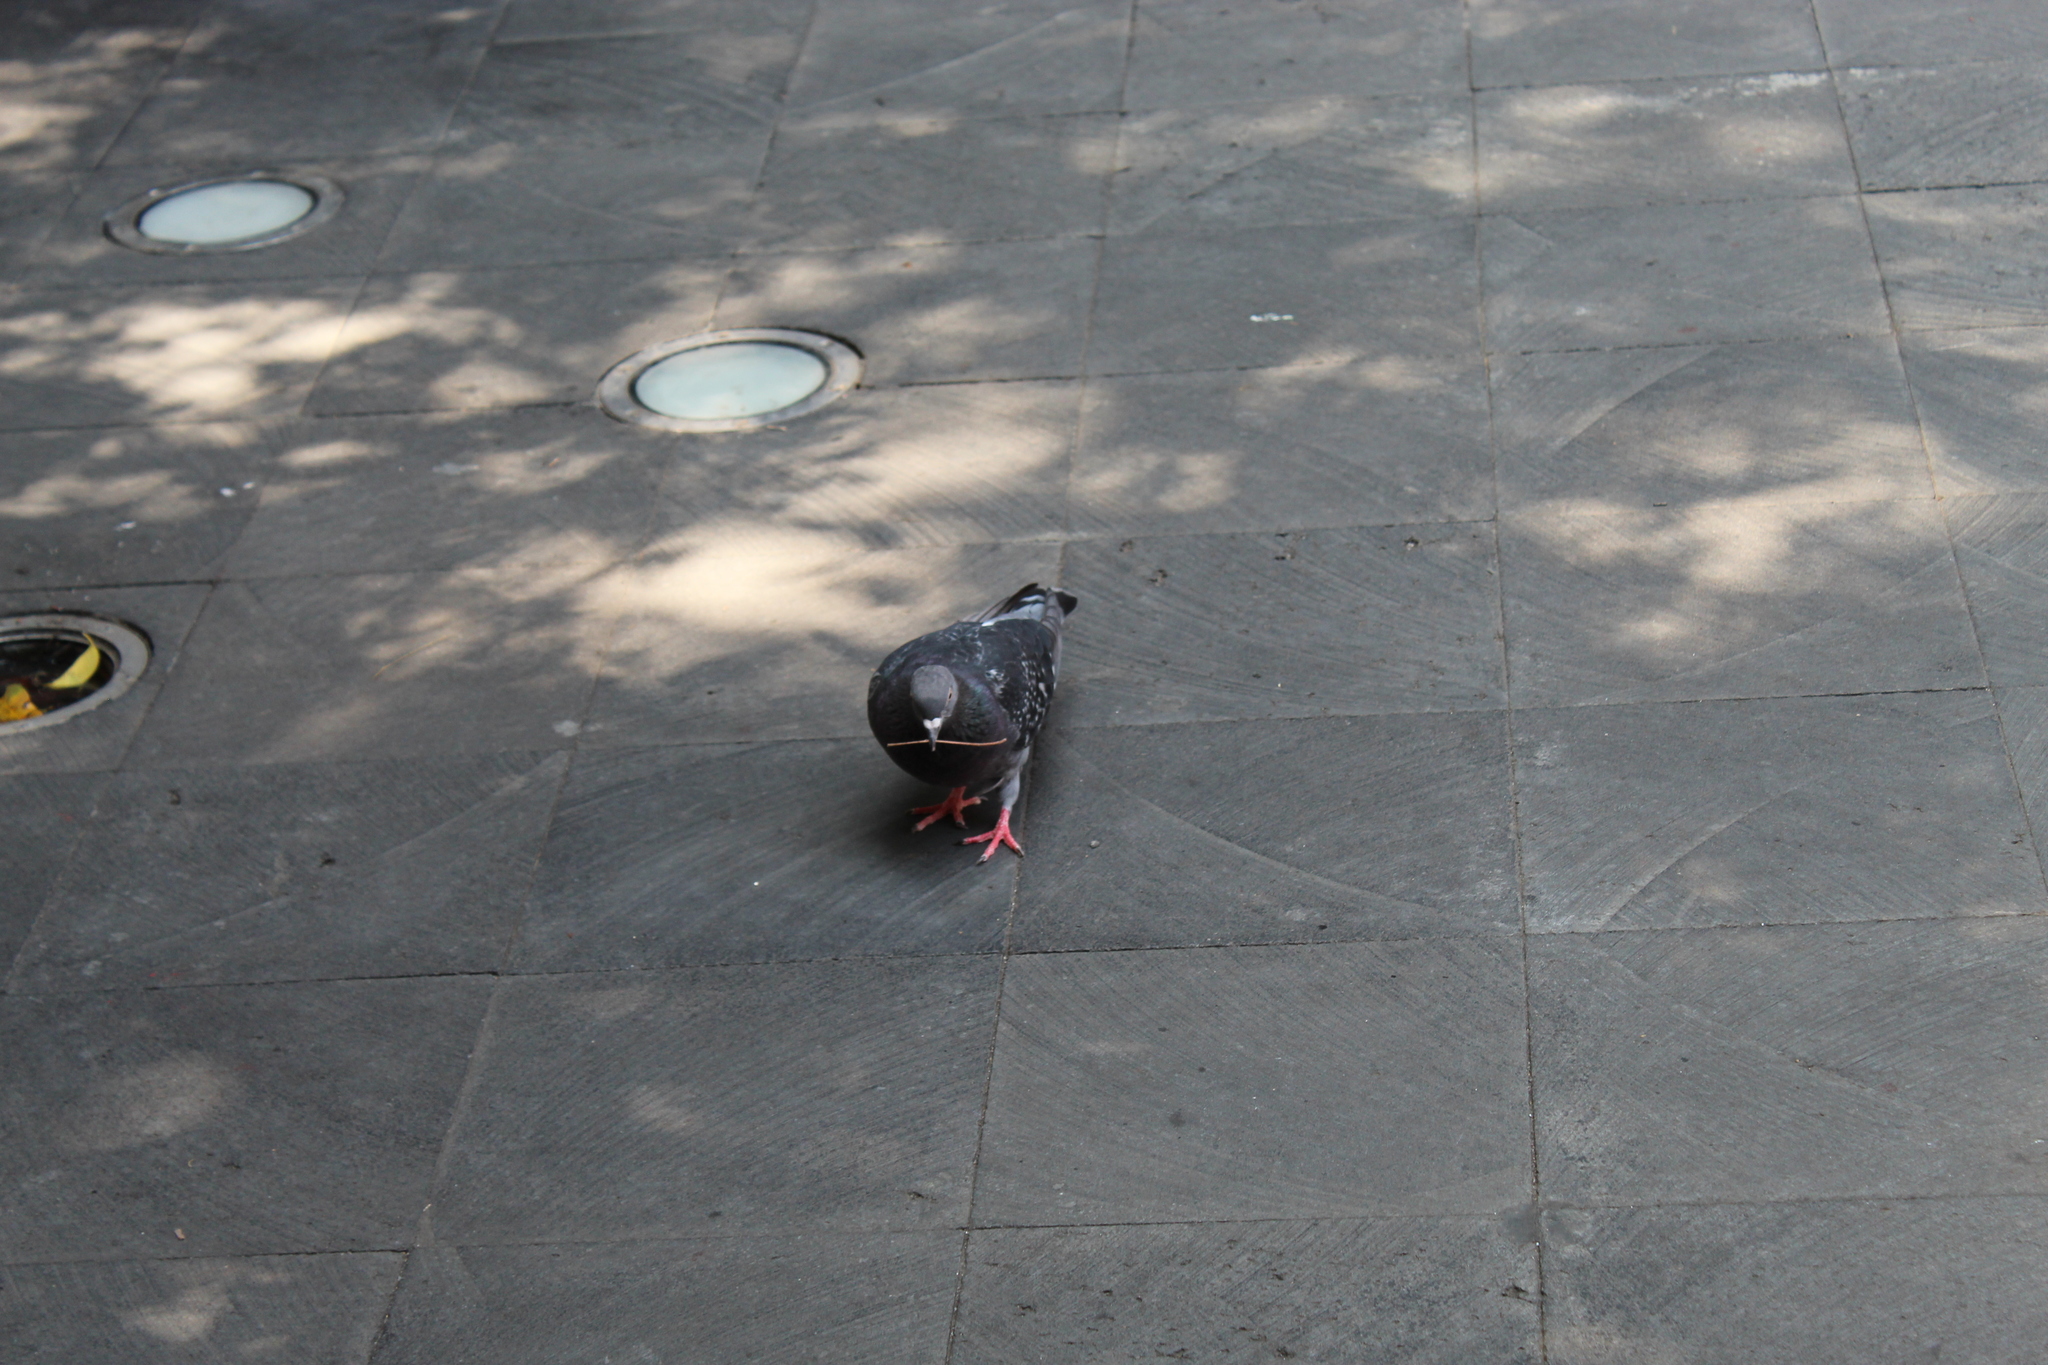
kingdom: Animalia
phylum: Chordata
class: Aves
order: Columbiformes
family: Columbidae
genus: Columba
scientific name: Columba livia
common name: Rock pigeon
